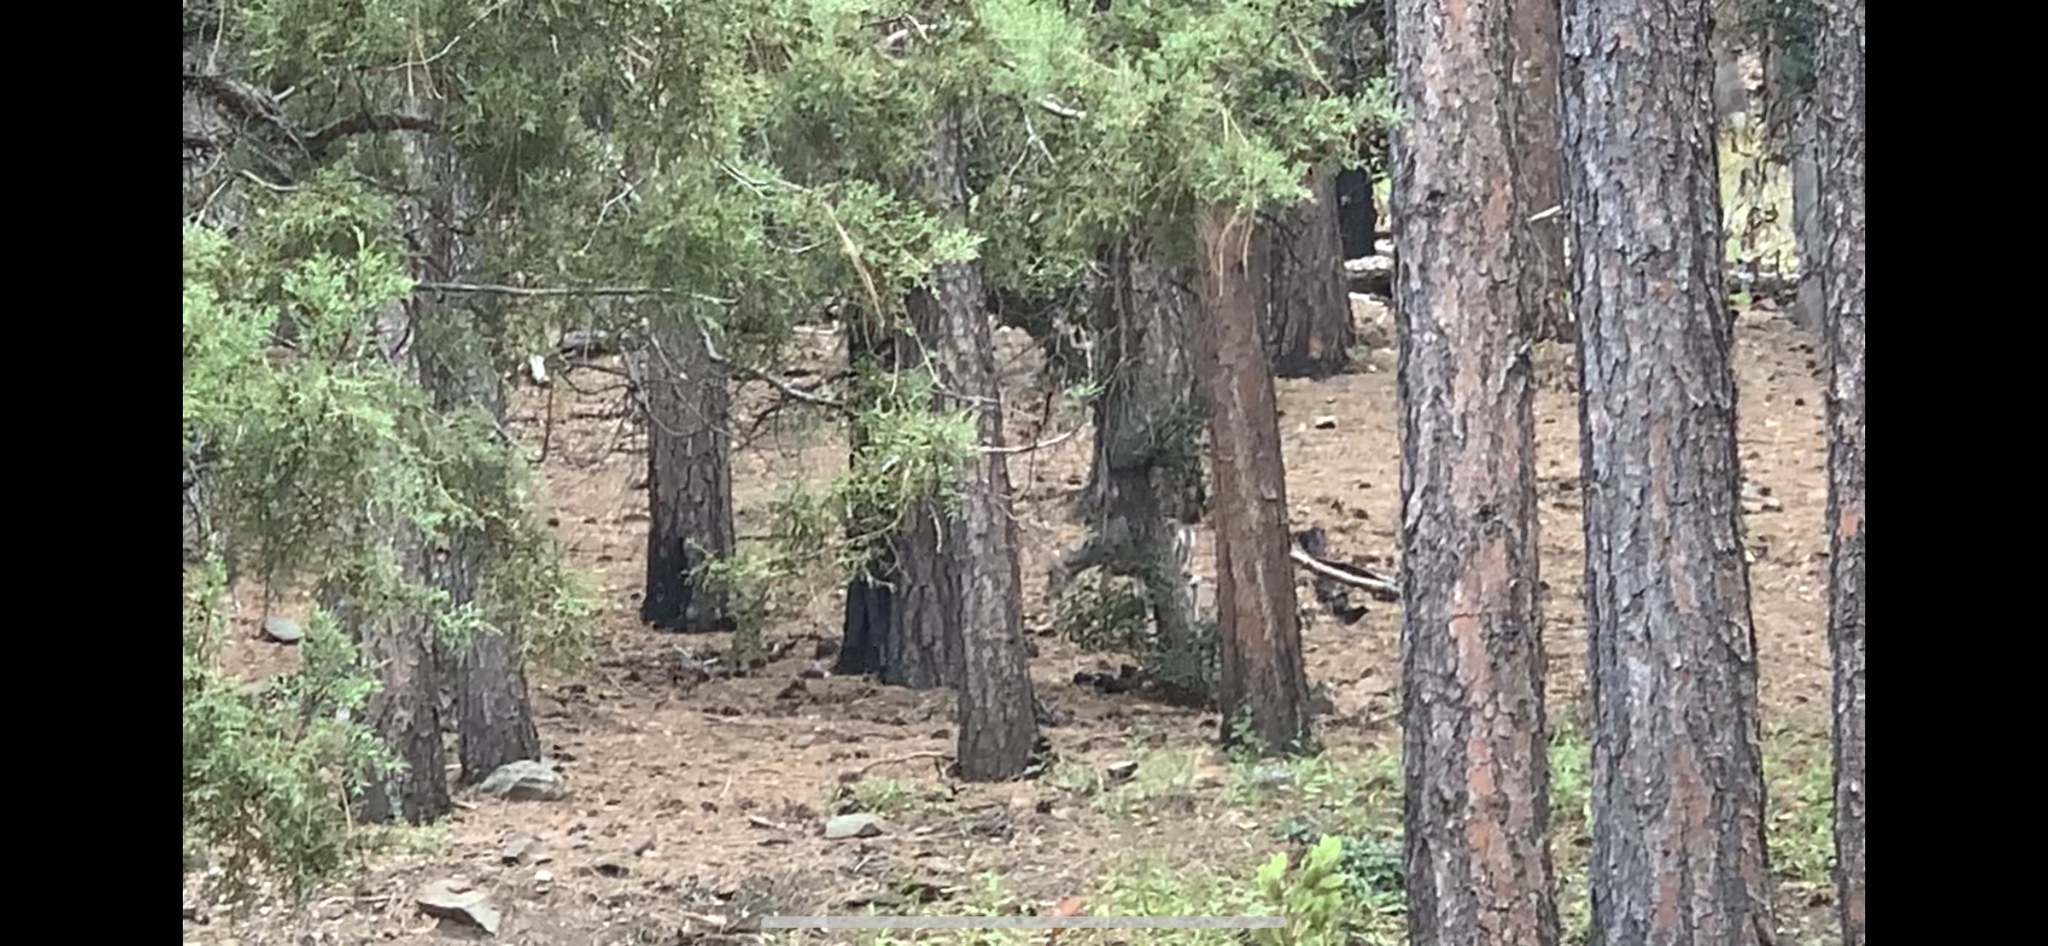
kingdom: Animalia
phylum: Chordata
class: Mammalia
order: Artiodactyla
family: Cervidae
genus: Odocoileus
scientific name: Odocoileus virginianus
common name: White-tailed deer
